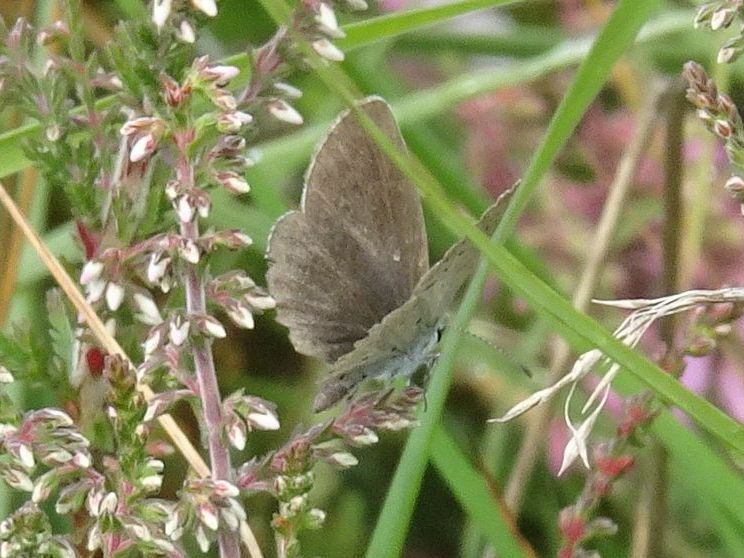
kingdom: Animalia
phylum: Arthropoda
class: Insecta
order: Lepidoptera
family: Lycaenidae
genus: Elkalyce
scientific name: Elkalyce argiades
